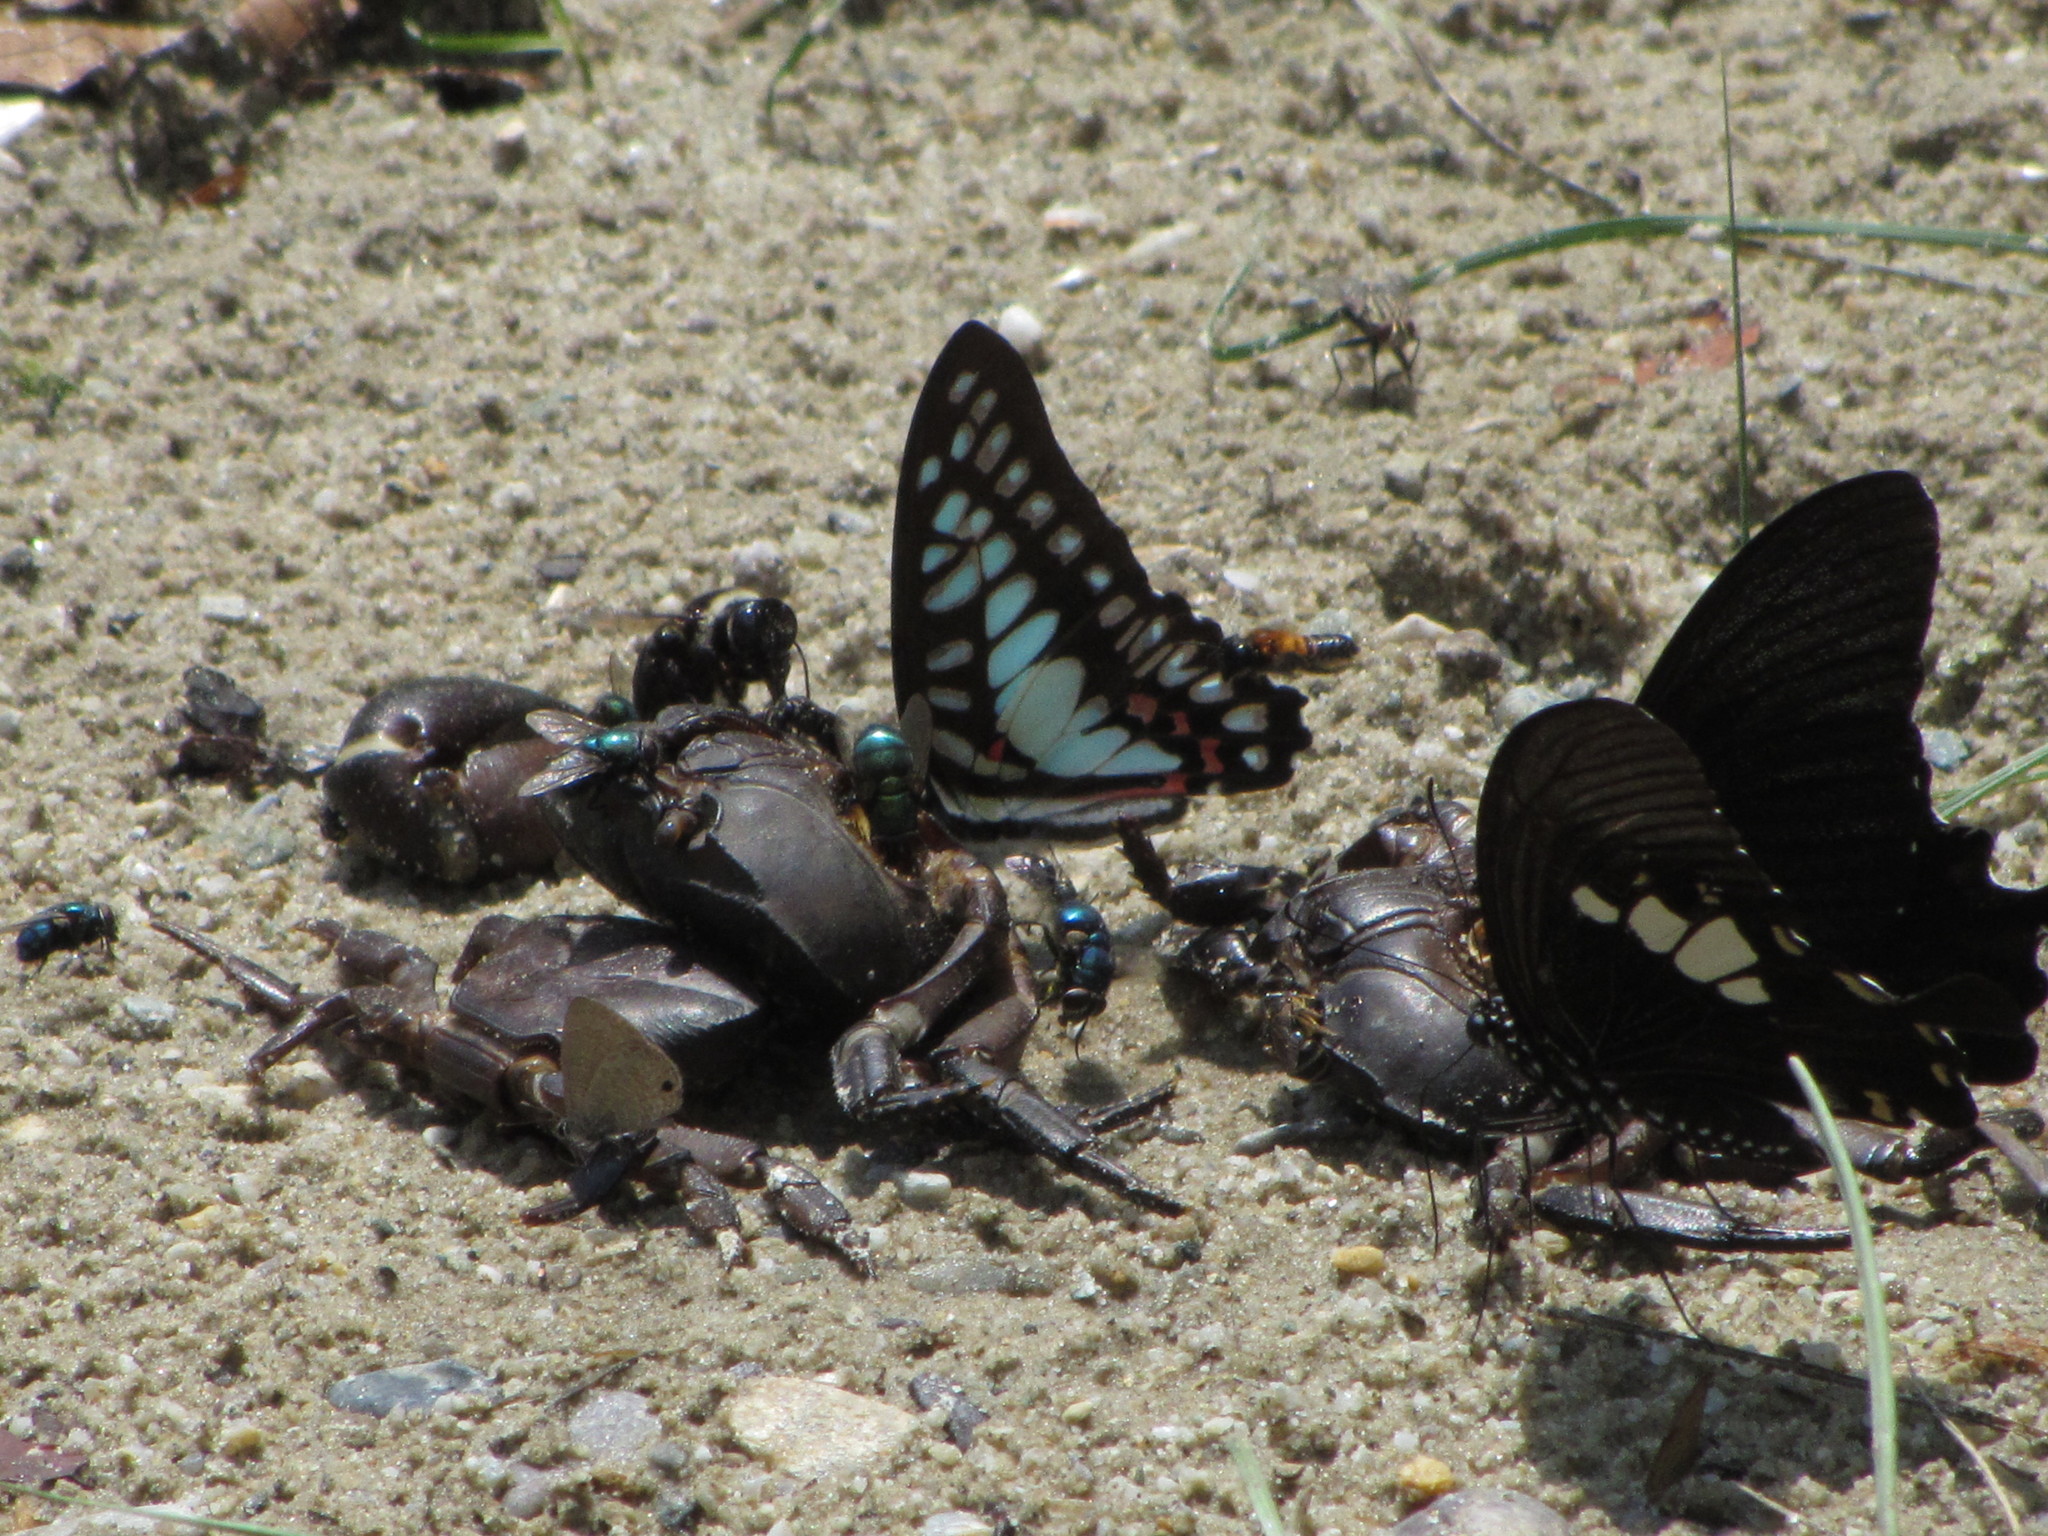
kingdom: Animalia
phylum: Arthropoda
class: Insecta
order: Lepidoptera
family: Papilionidae
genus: Graphium
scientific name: Graphium eurypylus
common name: Great jay
